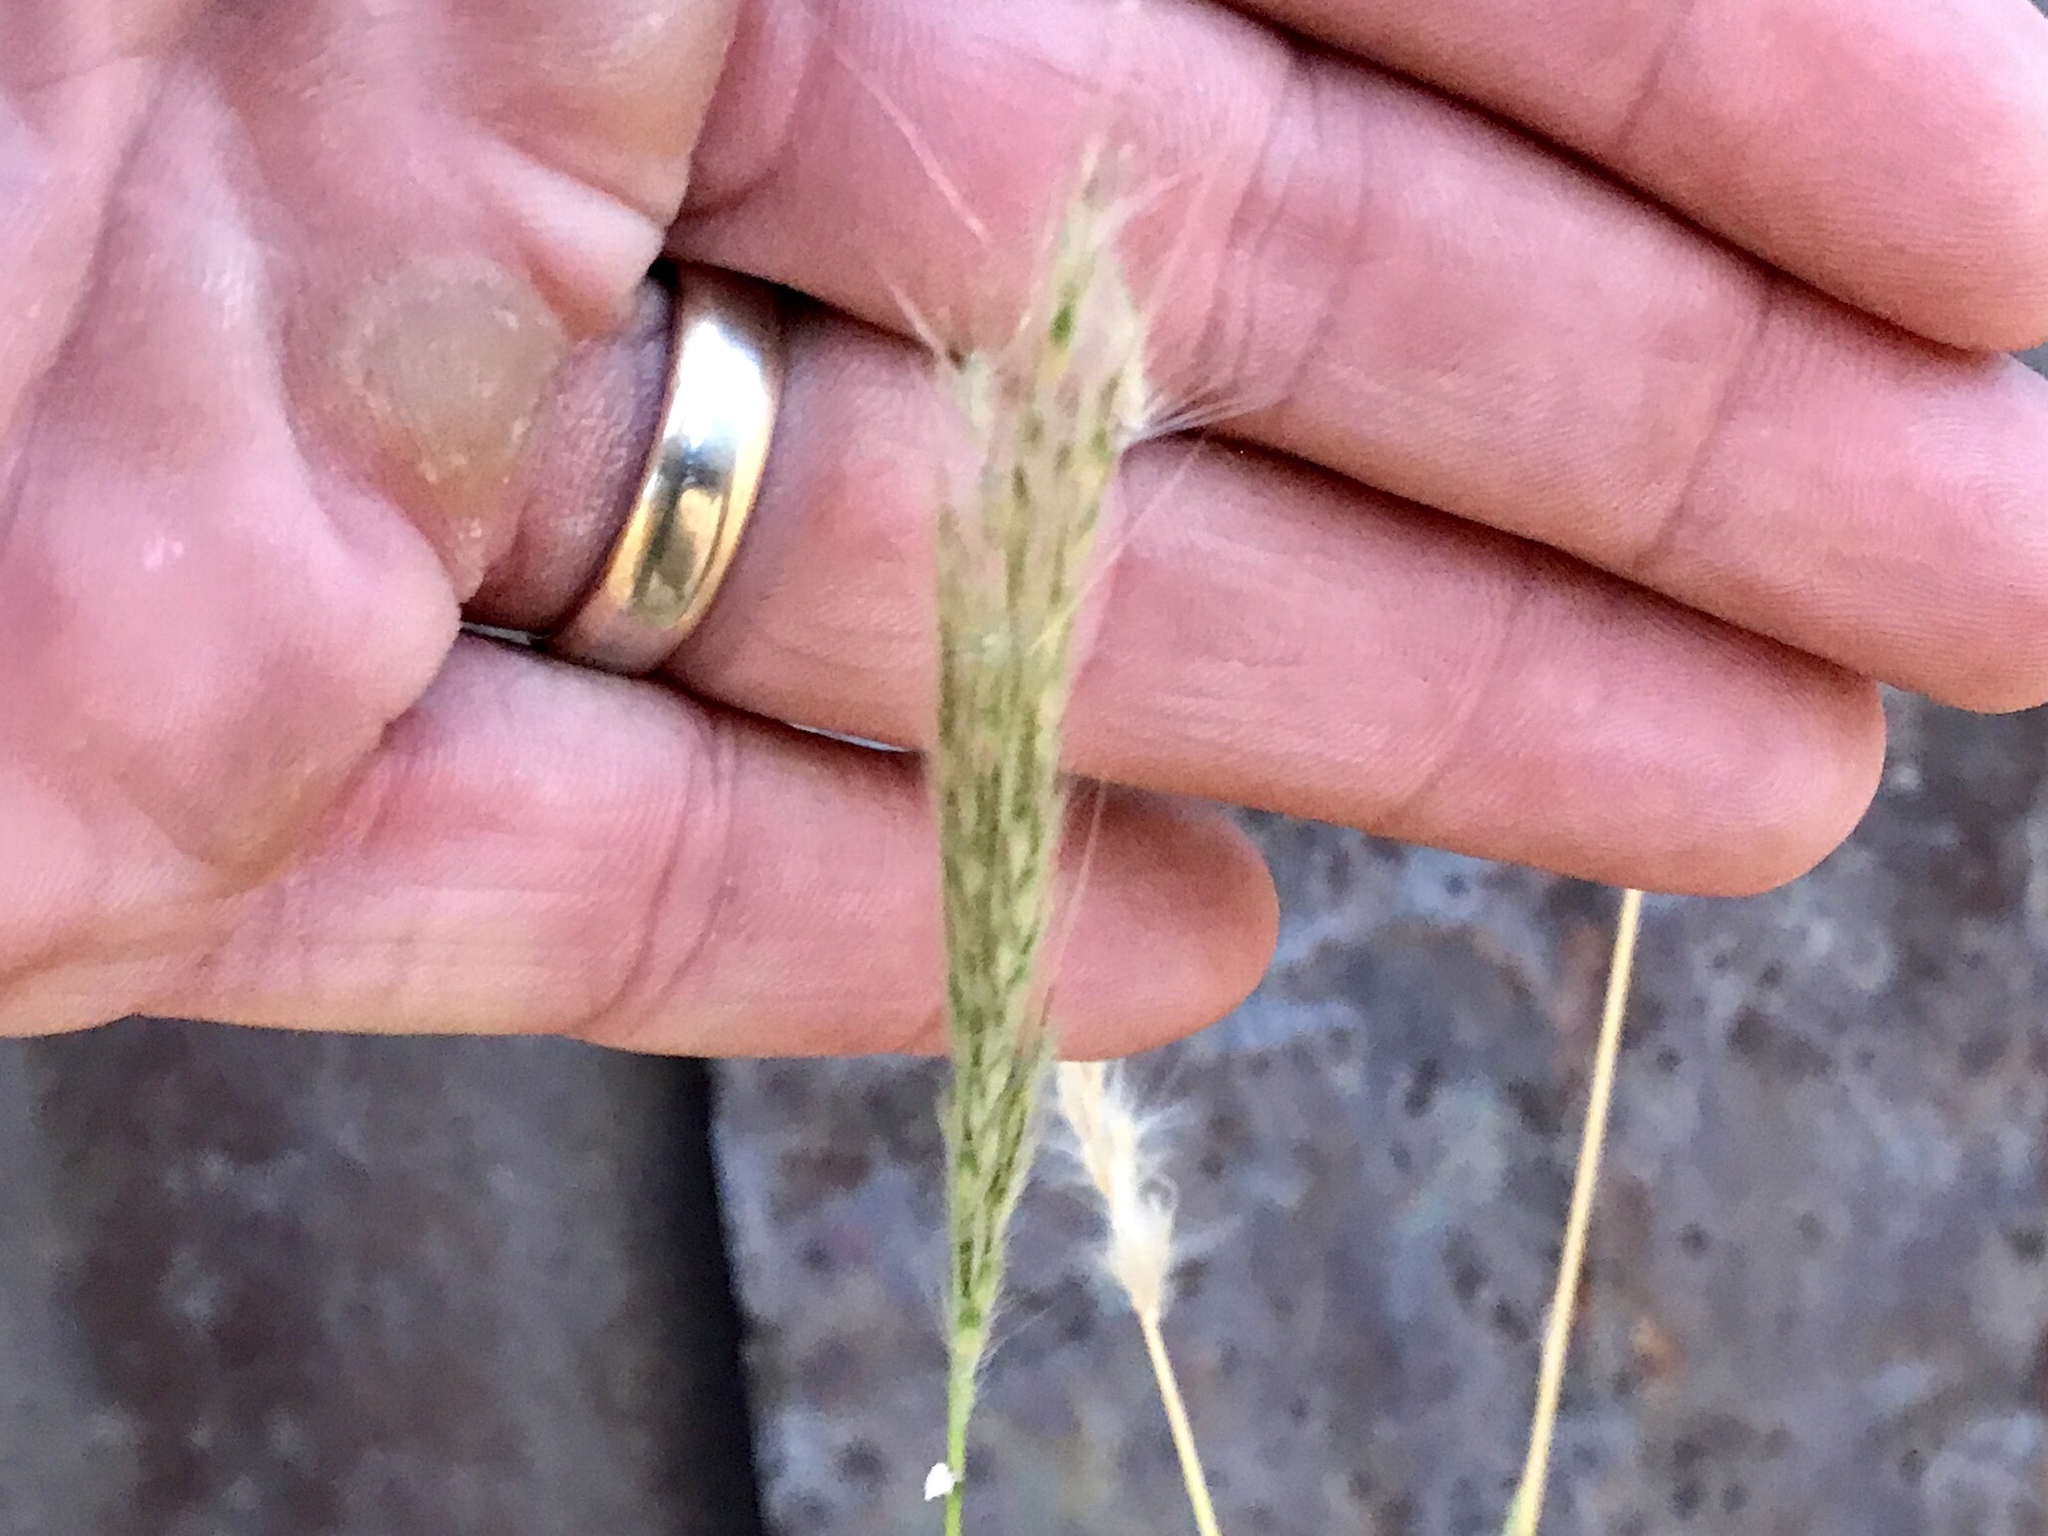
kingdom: Plantae
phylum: Tracheophyta
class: Liliopsida
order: Poales
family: Poaceae
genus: Bothriochloa
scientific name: Bothriochloa barbinodis
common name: Cane bluestem
